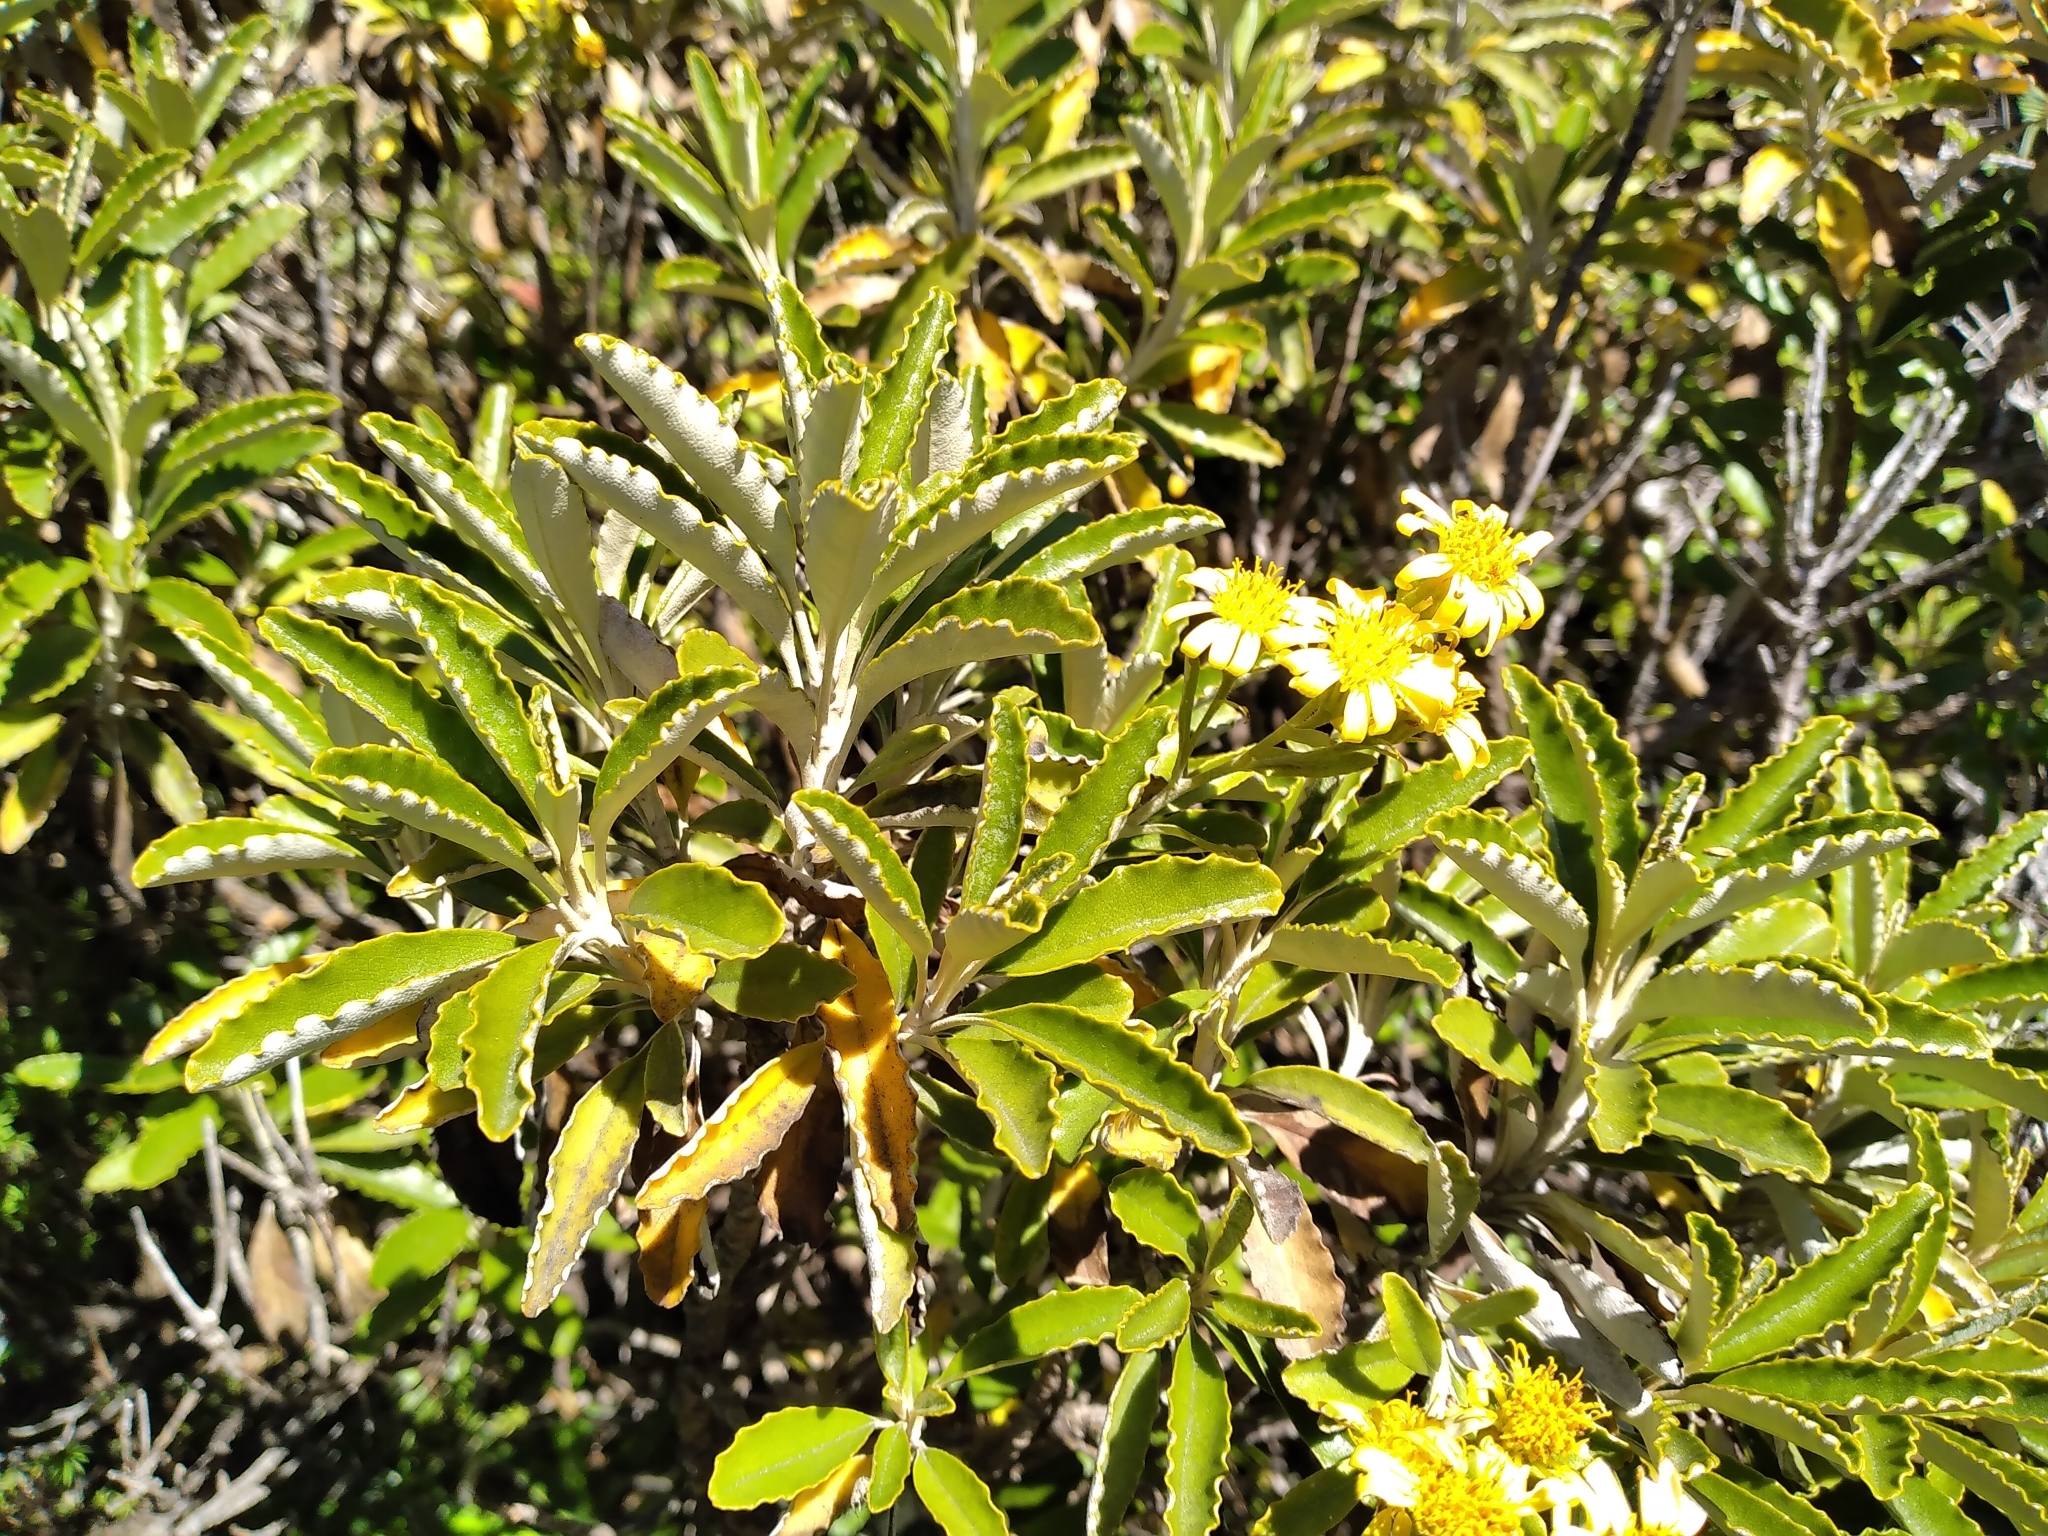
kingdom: Plantae
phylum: Tracheophyta
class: Magnoliopsida
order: Asterales
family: Asteraceae
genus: Brachyglottis
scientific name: Brachyglottis monroi
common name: Monro's ragwort
